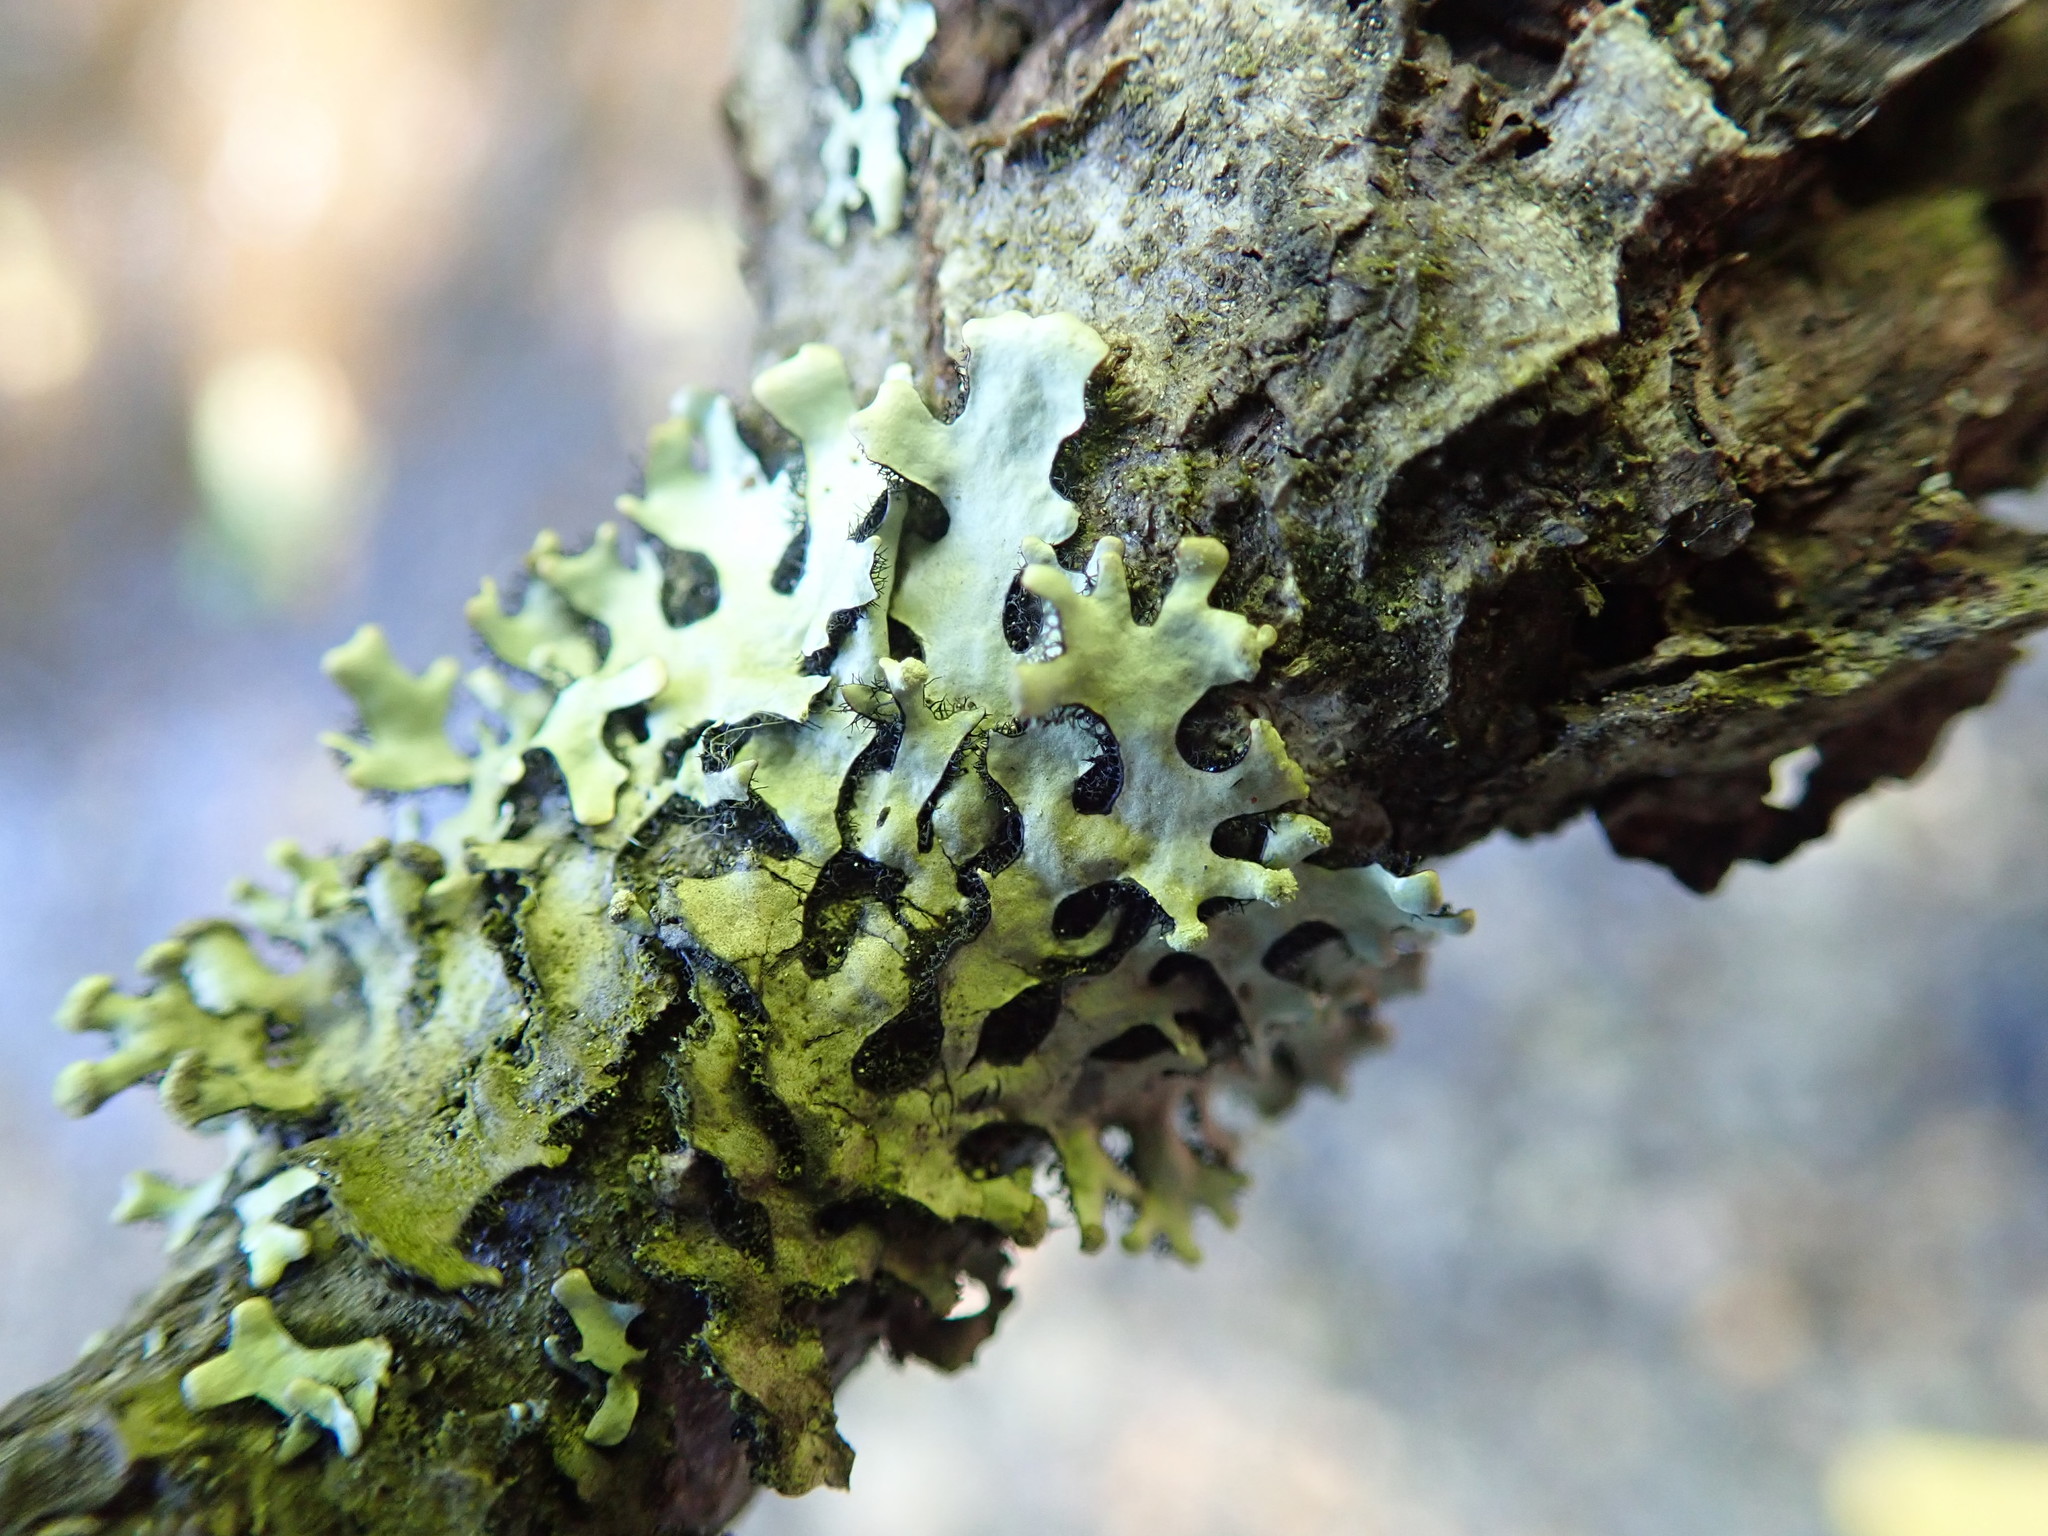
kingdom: Fungi
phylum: Ascomycota
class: Lecanoromycetes
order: Lecanorales
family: Parmeliaceae
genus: Hypotrachyna
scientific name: Hypotrachyna sinuosa
